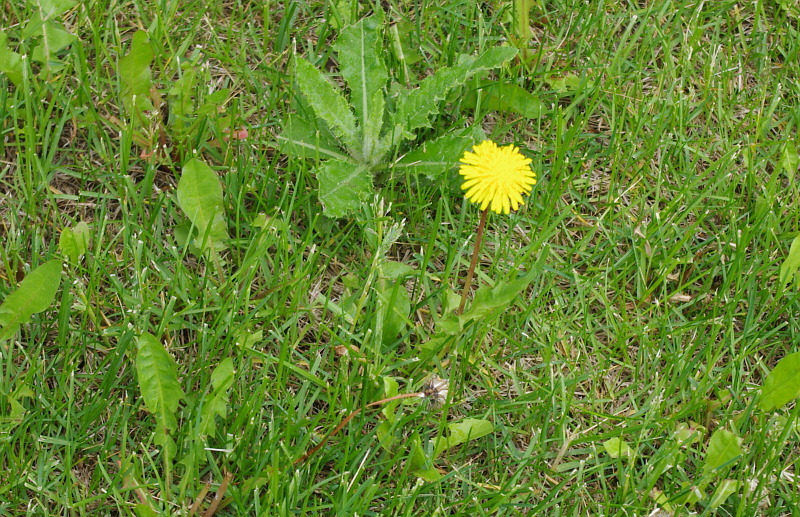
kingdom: Plantae
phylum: Tracheophyta
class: Magnoliopsida
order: Asterales
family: Asteraceae
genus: Taraxacum
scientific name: Taraxacum officinale
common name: Common dandelion
